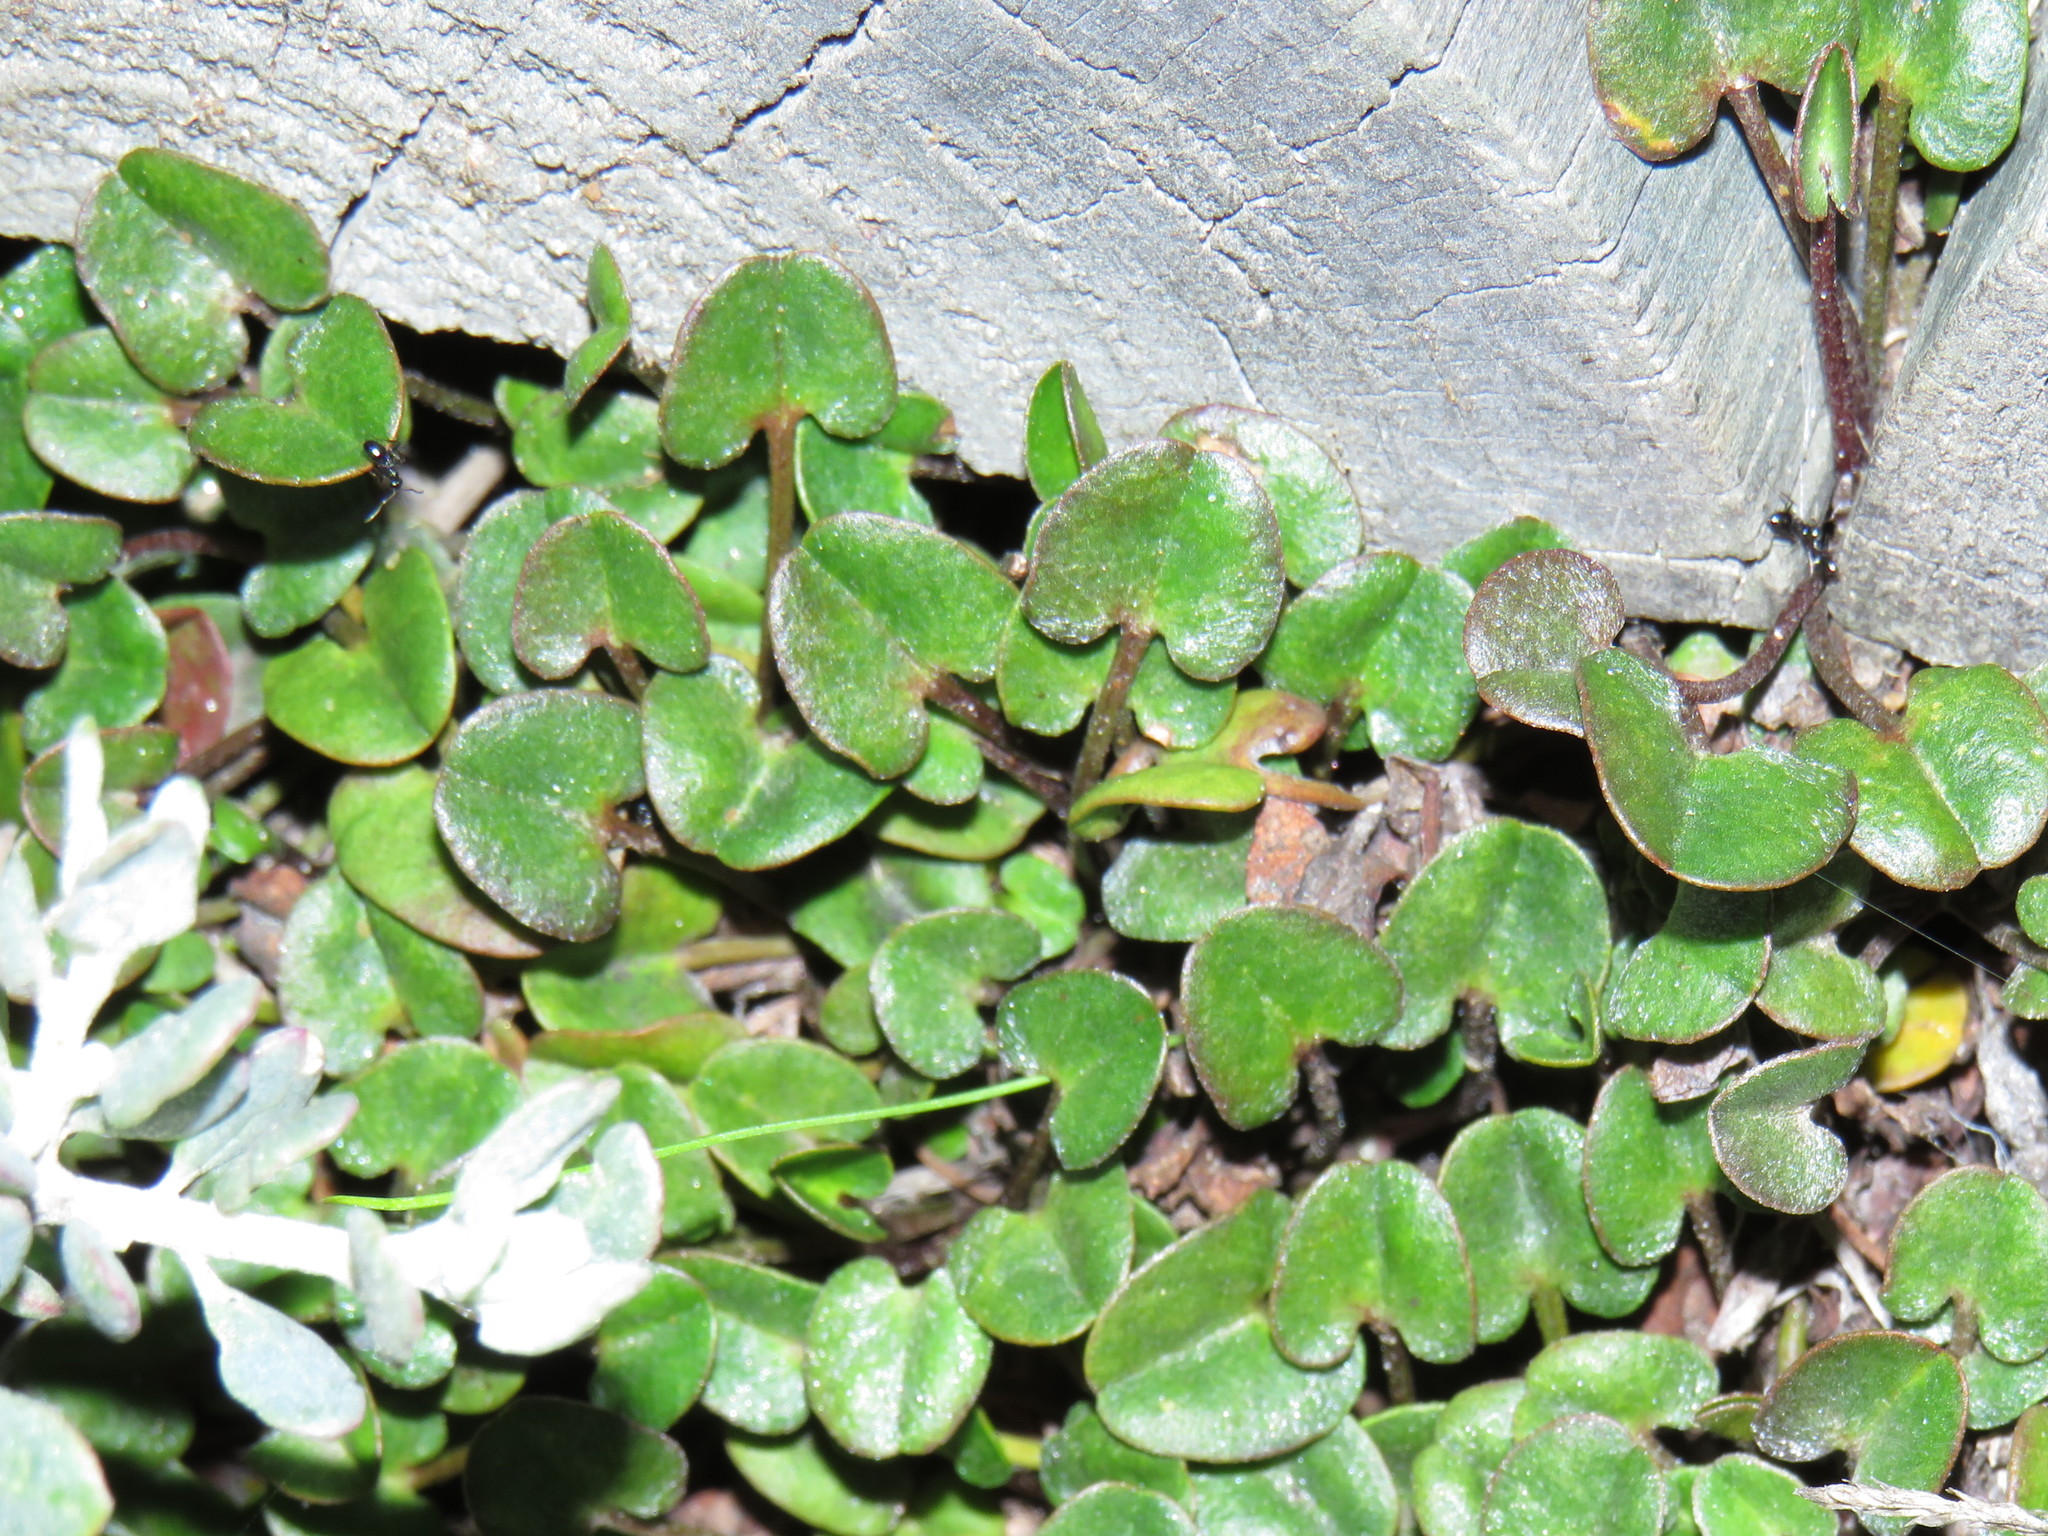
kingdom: Plantae
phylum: Tracheophyta
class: Magnoliopsida
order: Solanales
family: Convolvulaceae
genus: Falkia
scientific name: Falkia repens
